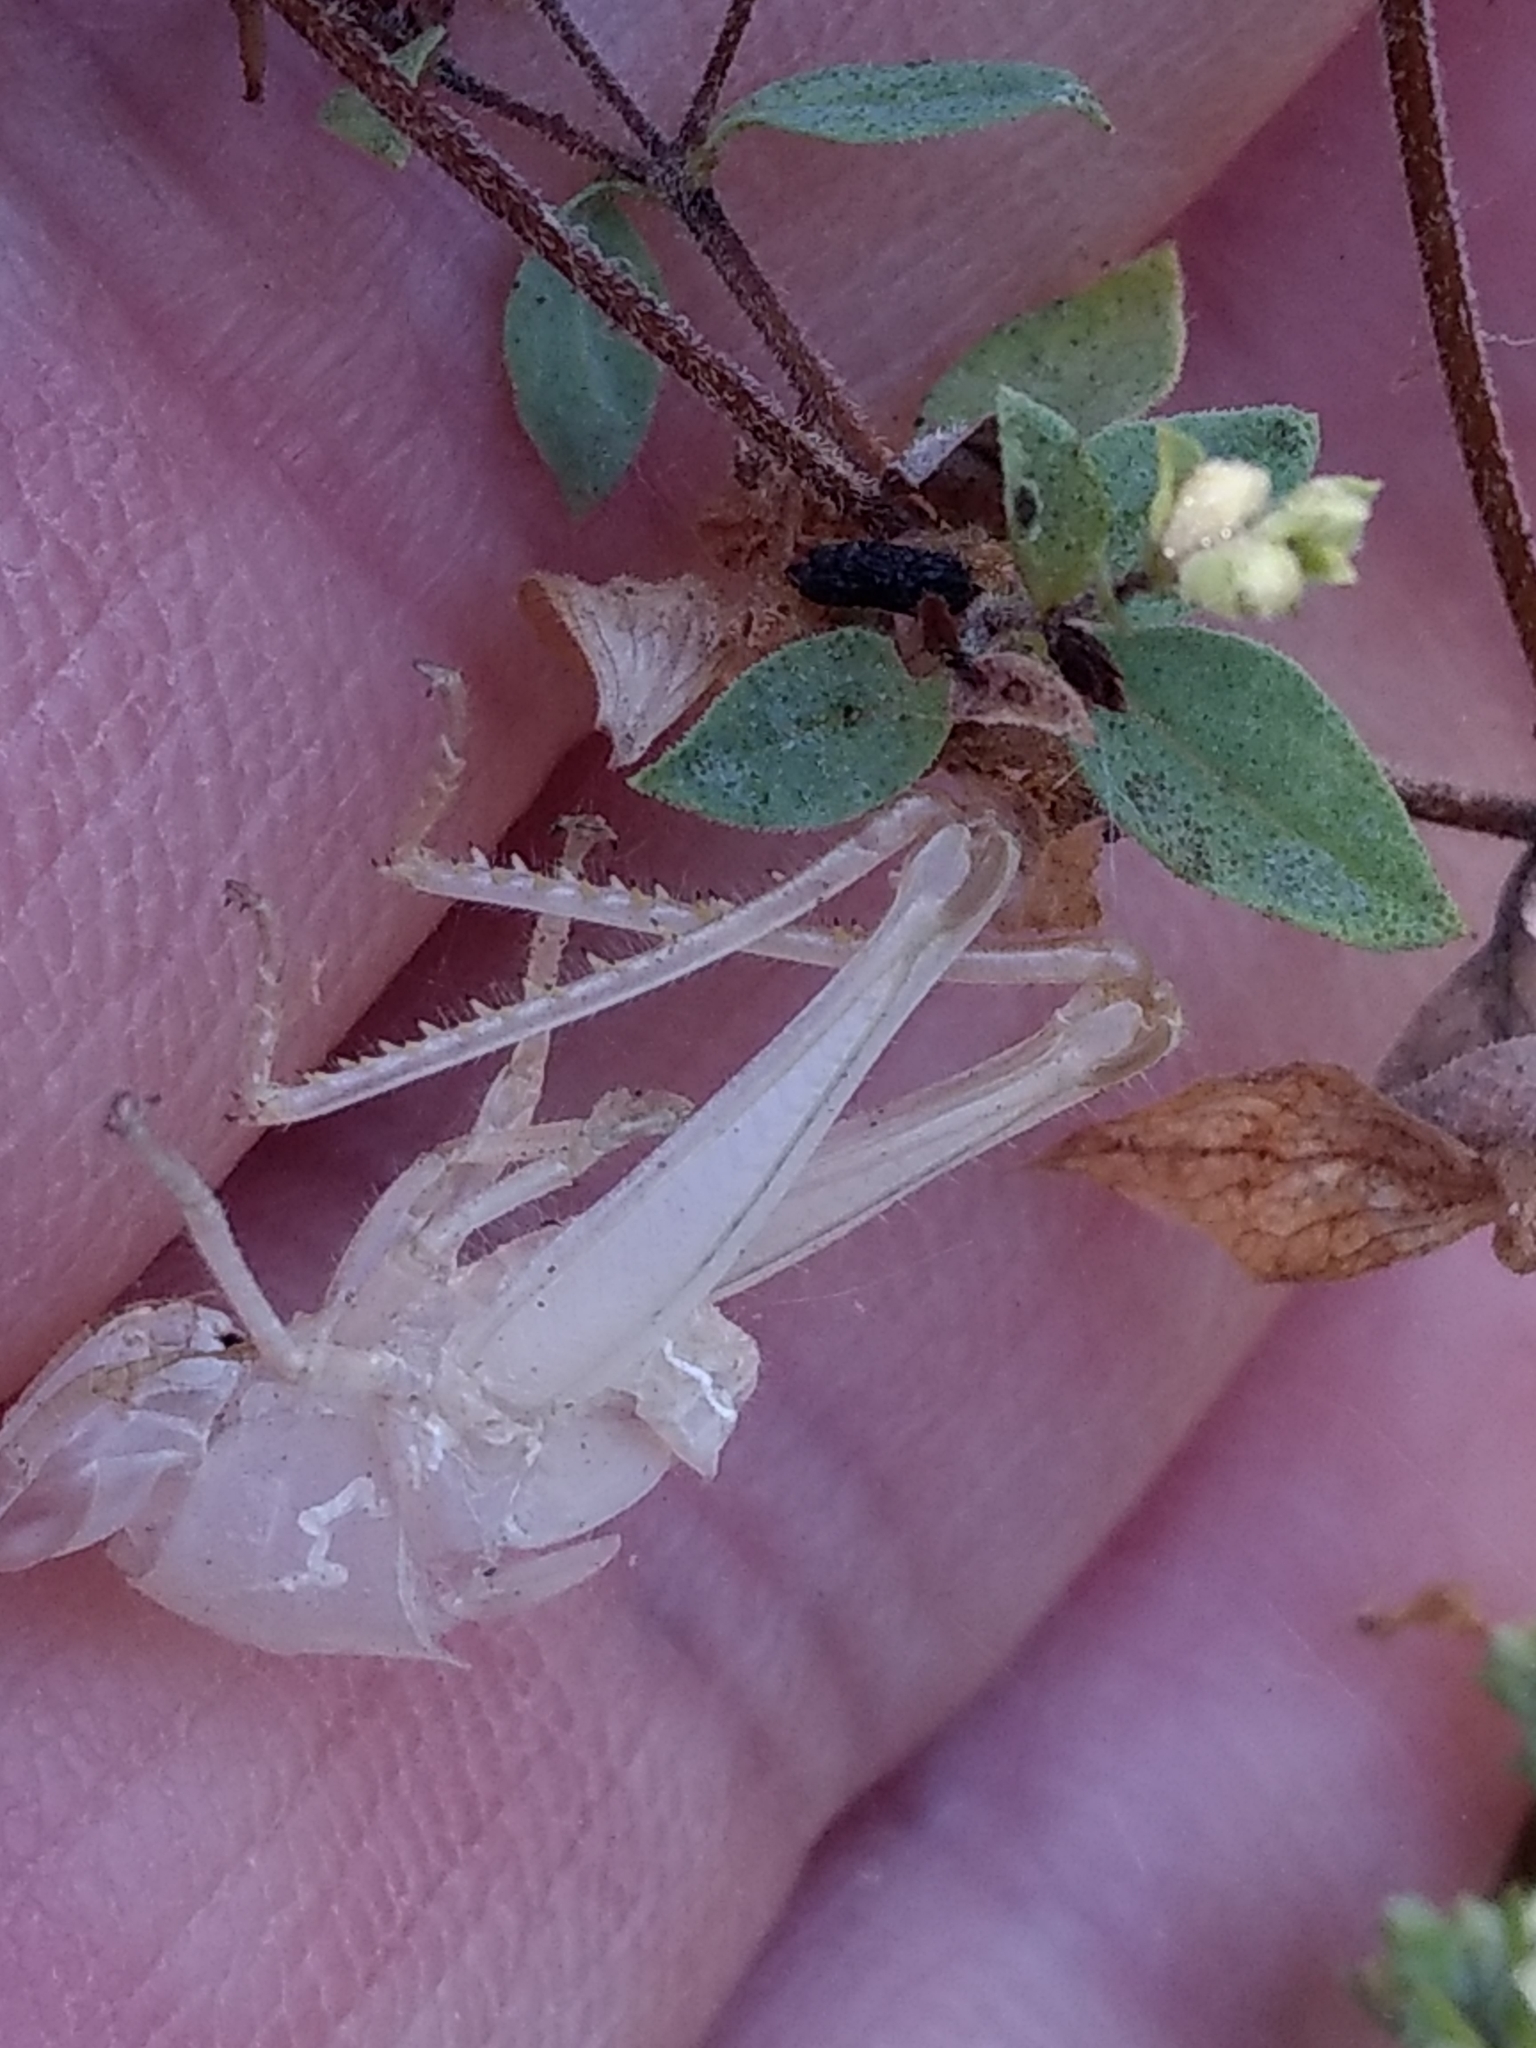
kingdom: Animalia
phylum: Arthropoda
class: Insecta
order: Orthoptera
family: Acrididae
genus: Schistocerca
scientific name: Schistocerca nitens
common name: Vagrant grasshopper
